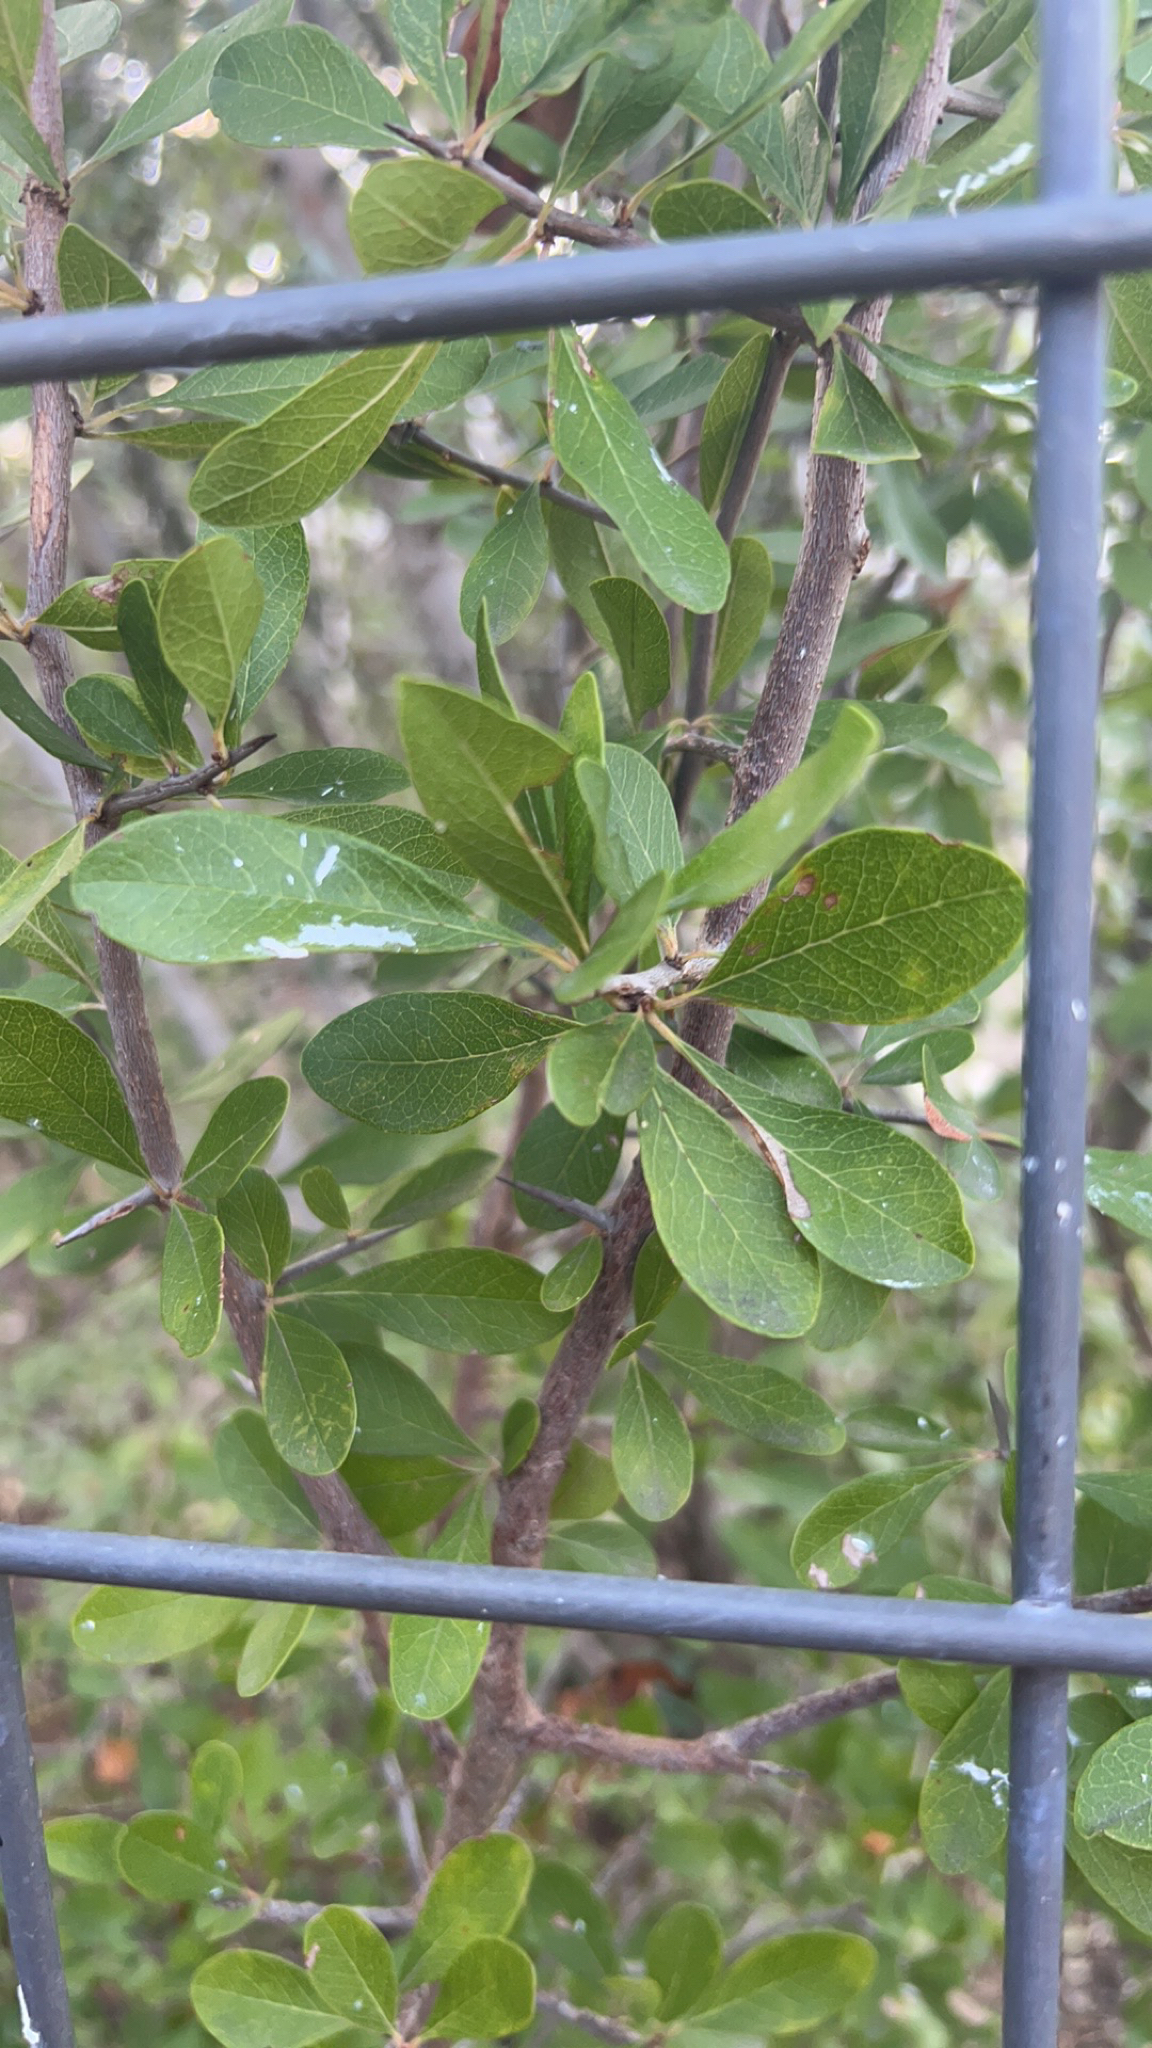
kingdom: Plantae
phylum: Tracheophyta
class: Magnoliopsida
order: Ericales
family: Sapotaceae
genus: Sideroxylon
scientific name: Sideroxylon lanuginosum
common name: Chittamwood
